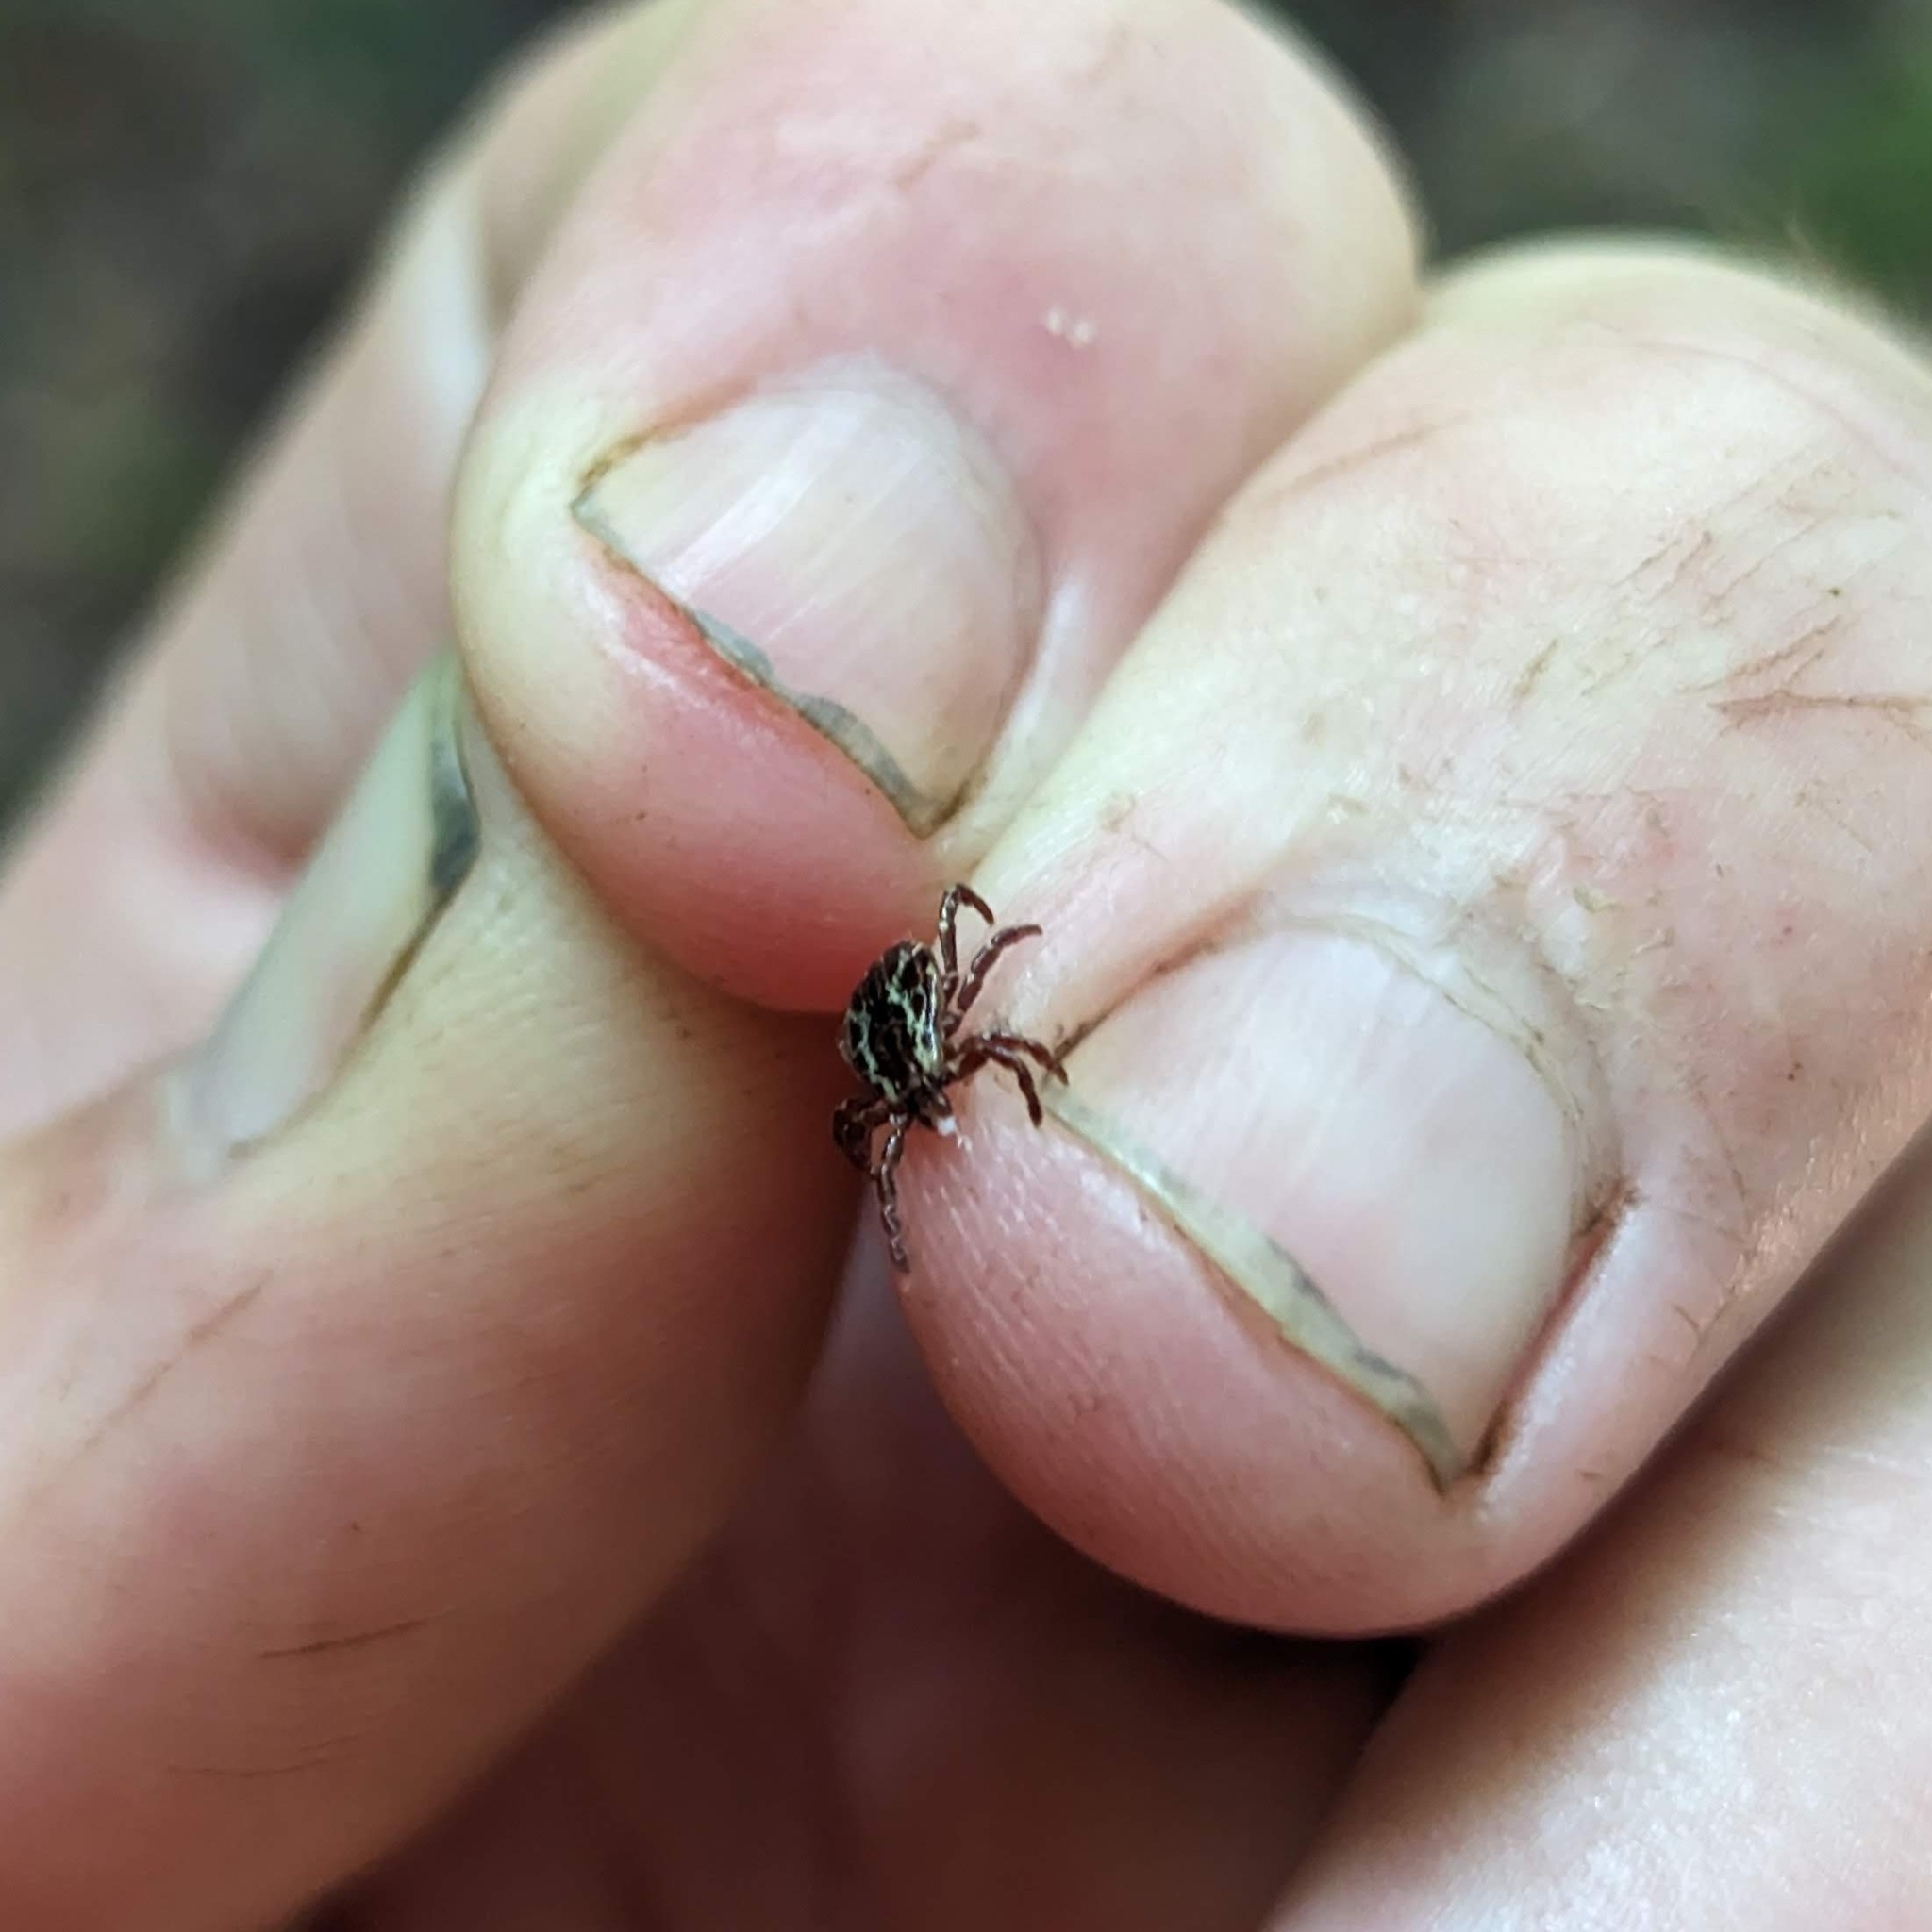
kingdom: Animalia
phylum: Arthropoda
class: Arachnida
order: Ixodida
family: Ixodidae
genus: Dermacentor
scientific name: Dermacentor variabilis
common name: American dog tick
